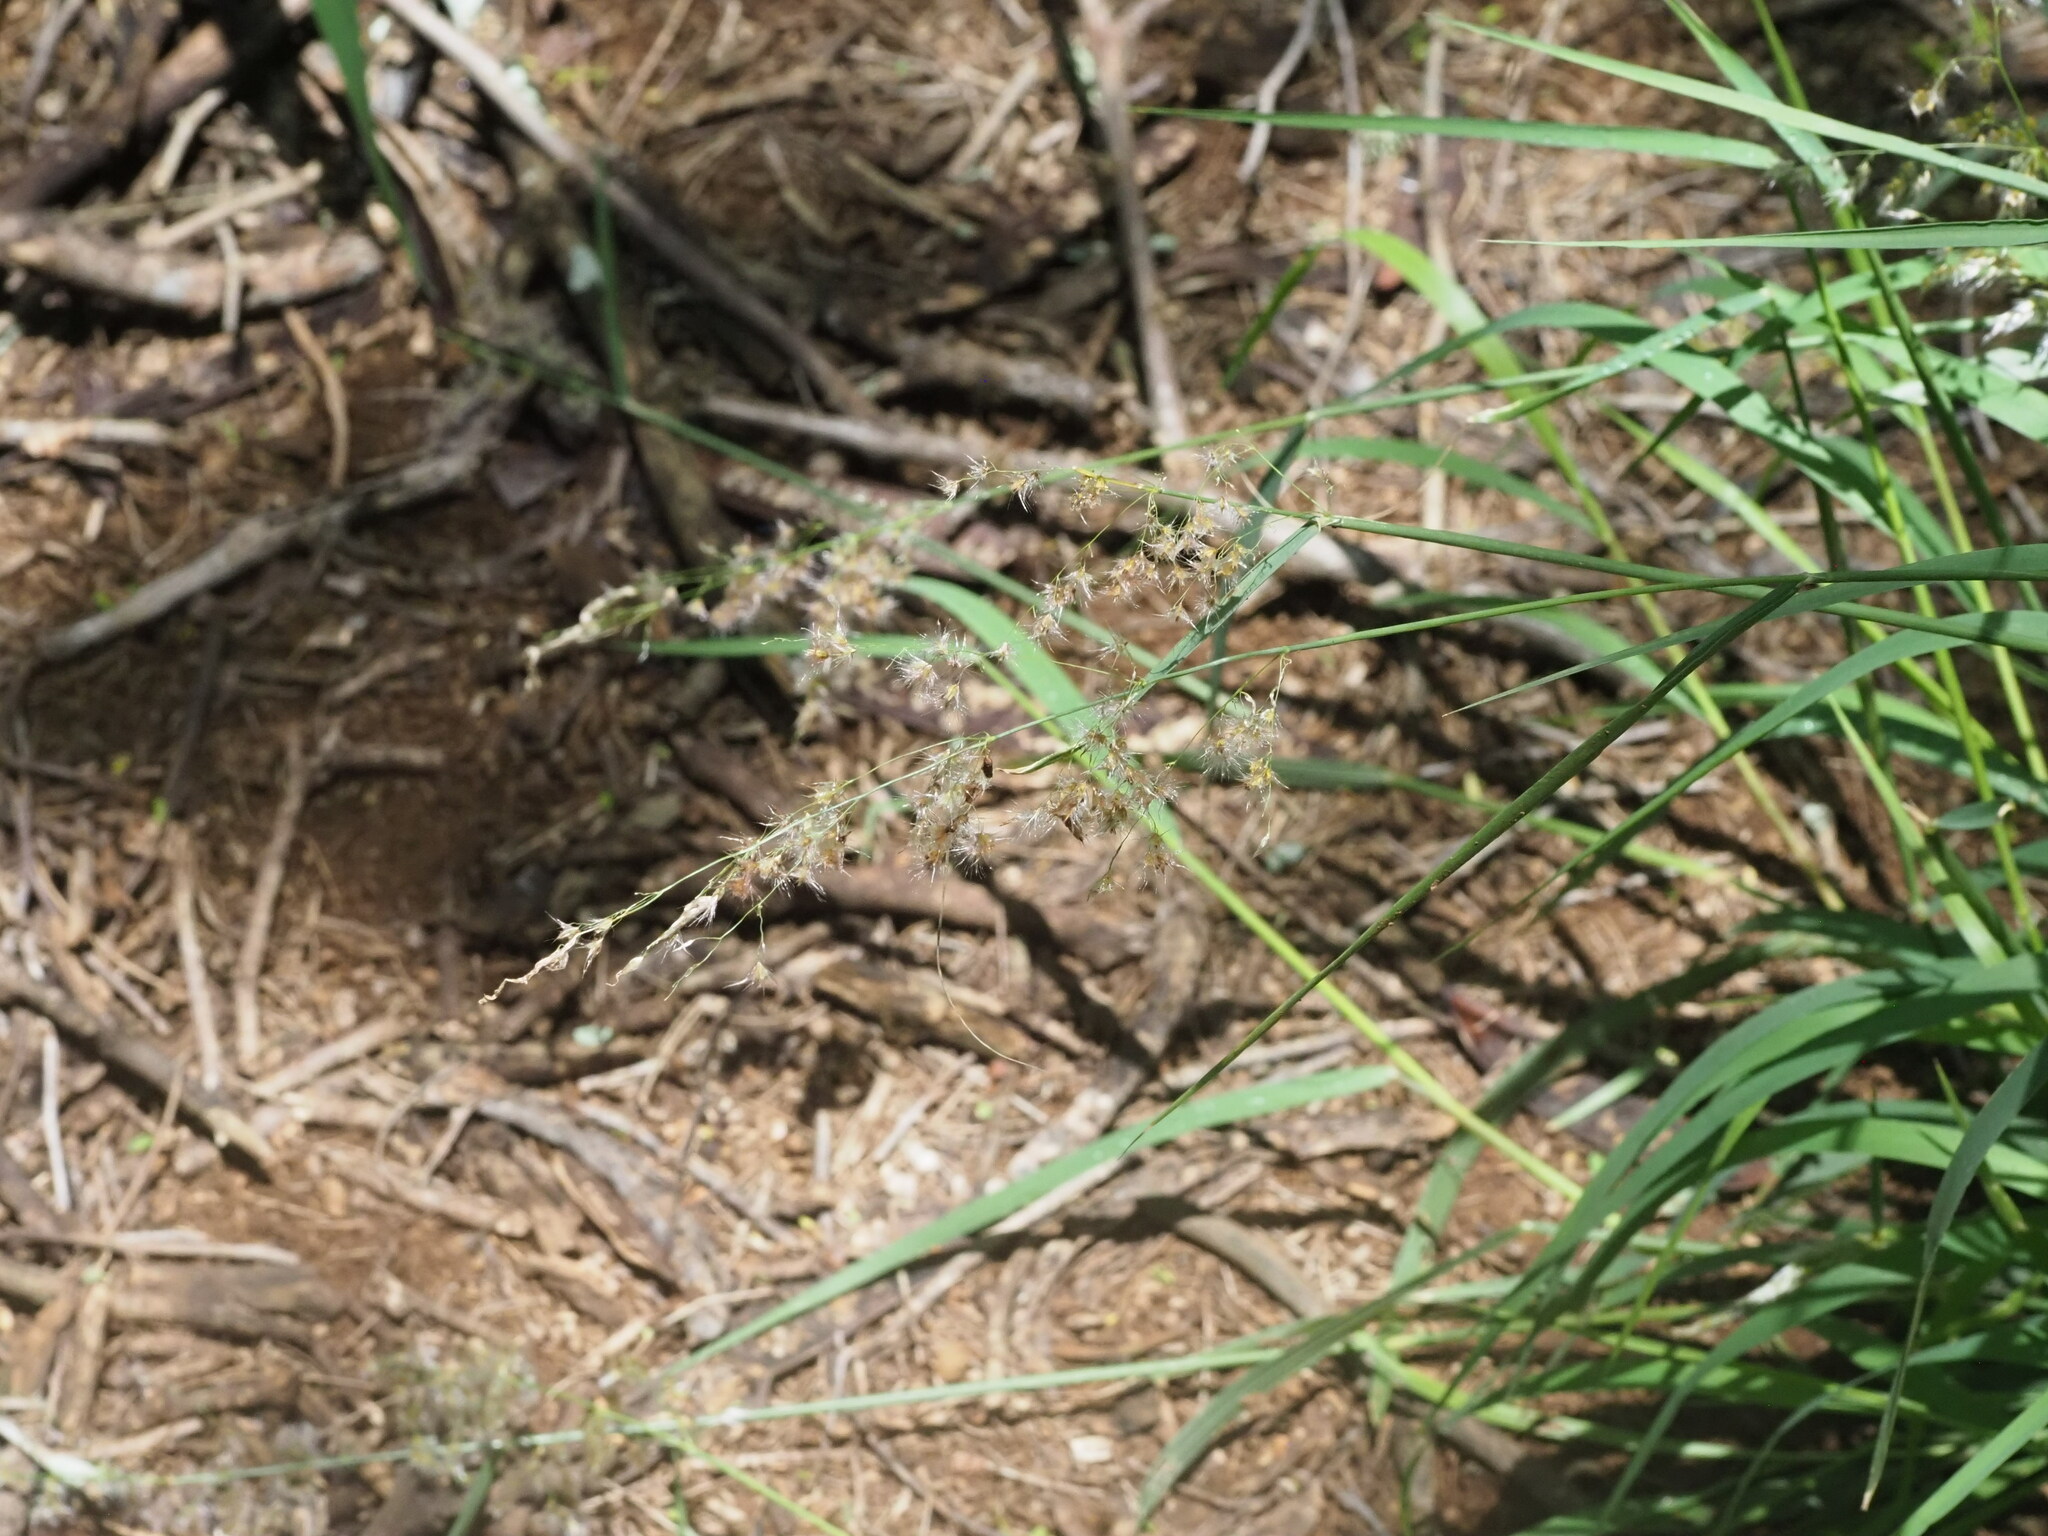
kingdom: Plantae
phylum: Tracheophyta
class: Liliopsida
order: Poales
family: Poaceae
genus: Melinis
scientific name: Melinis repens
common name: Rose natal grass
